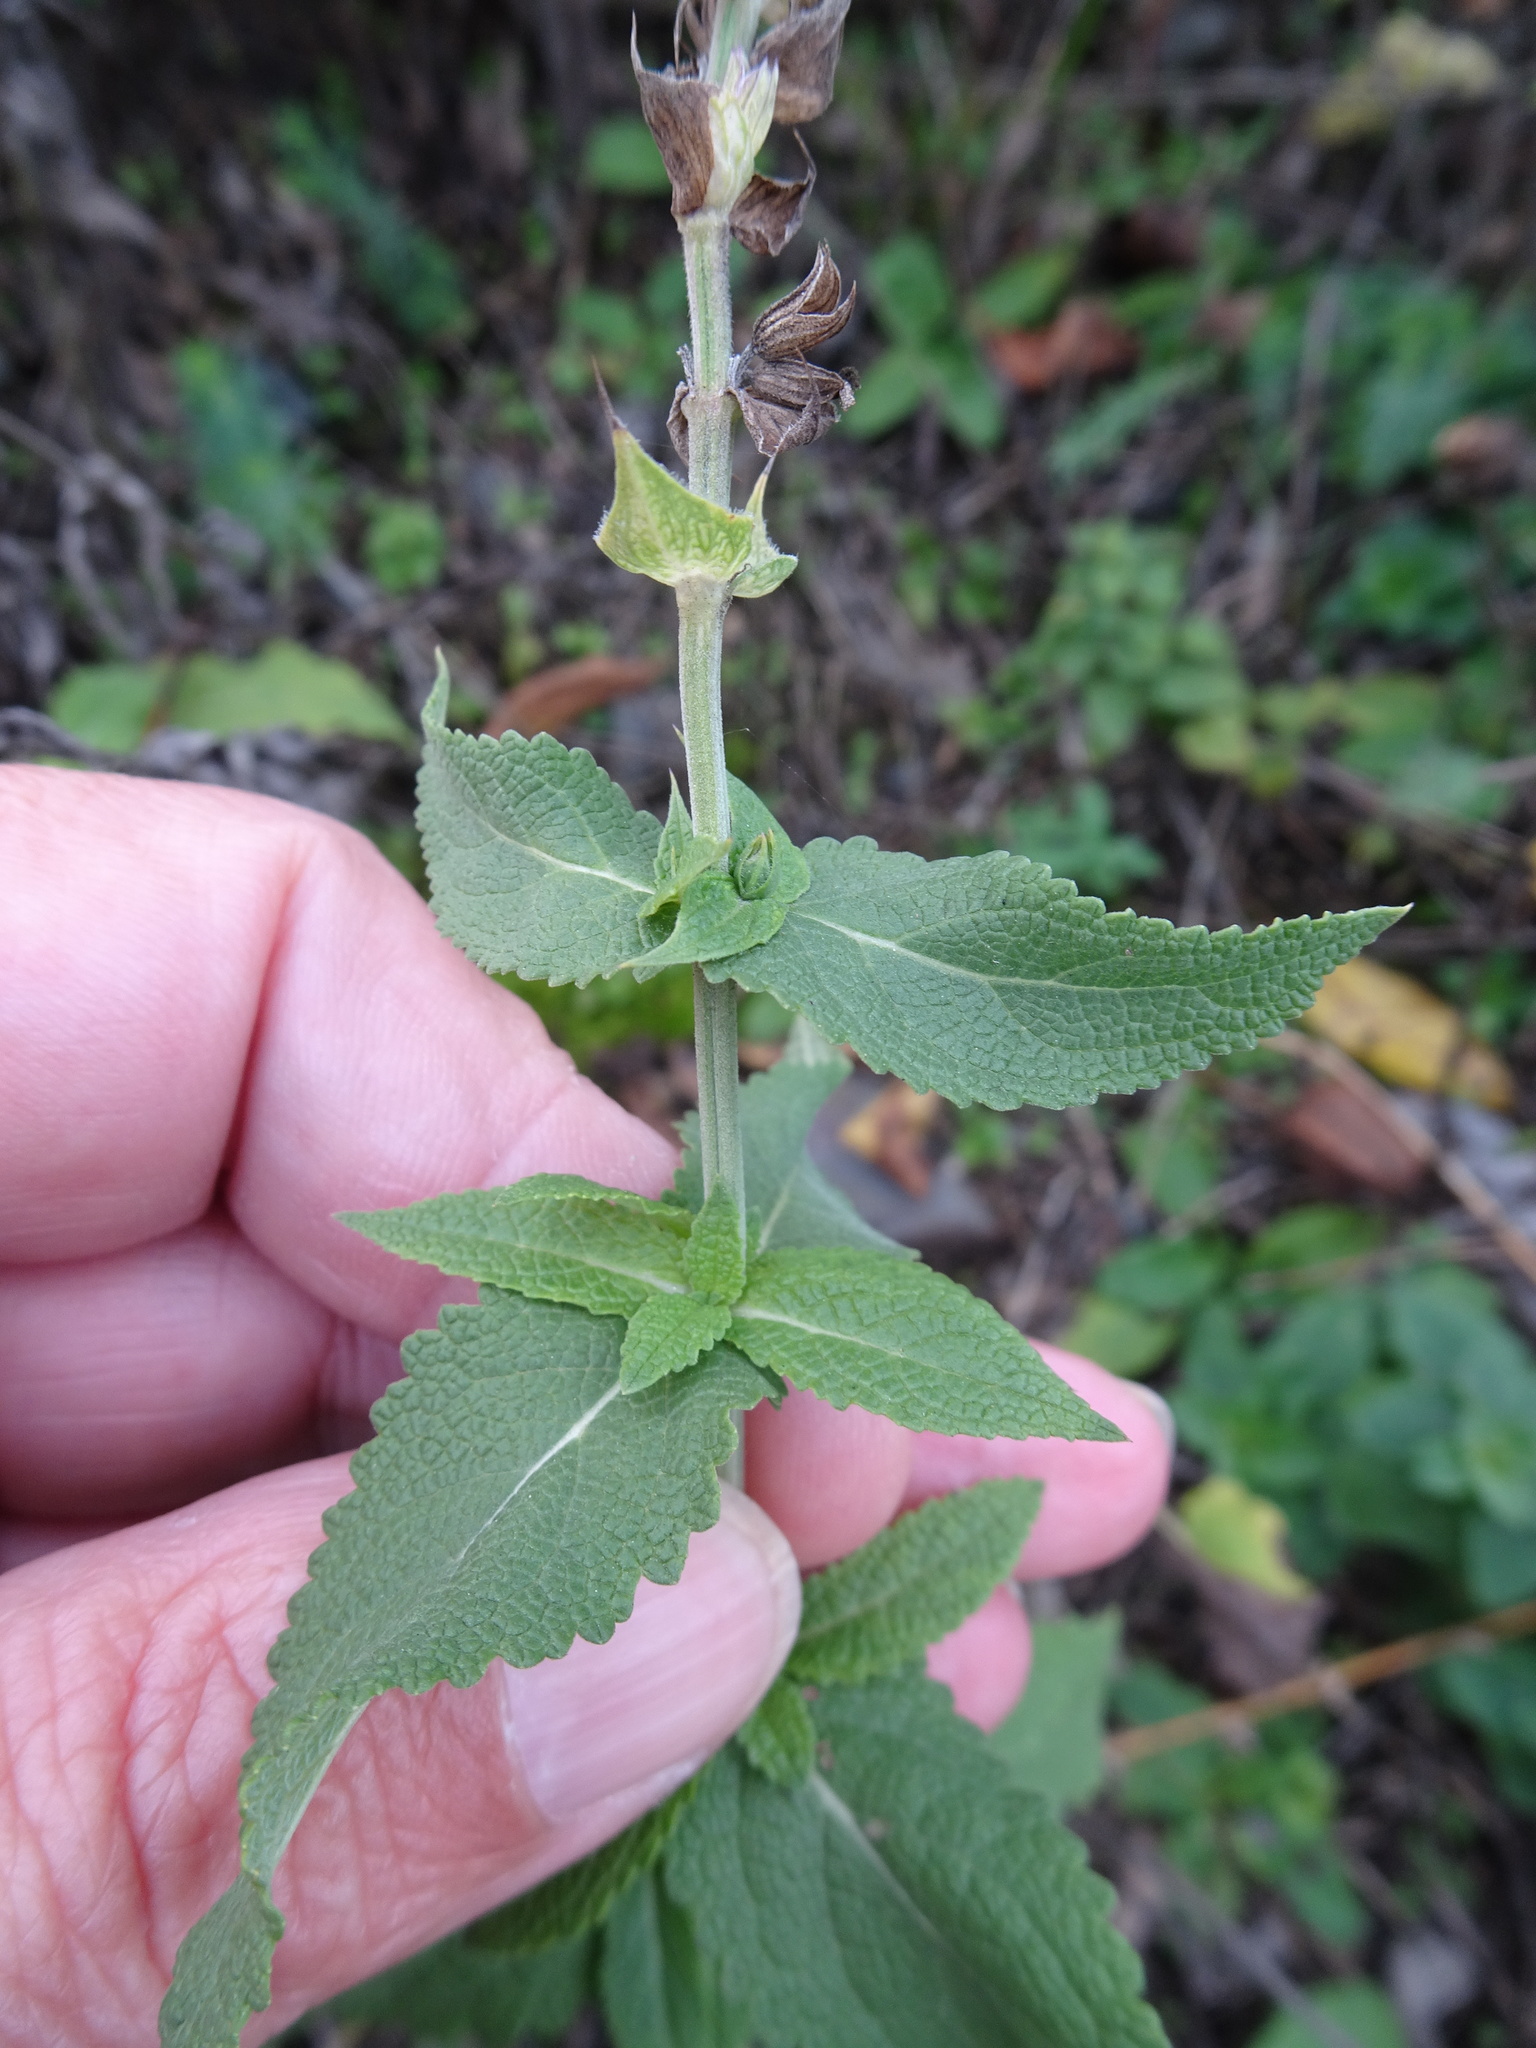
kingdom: Plantae
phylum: Tracheophyta
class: Magnoliopsida
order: Lamiales
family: Lamiaceae
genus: Salvia
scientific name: Salvia nemorosa
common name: Balkan clary
